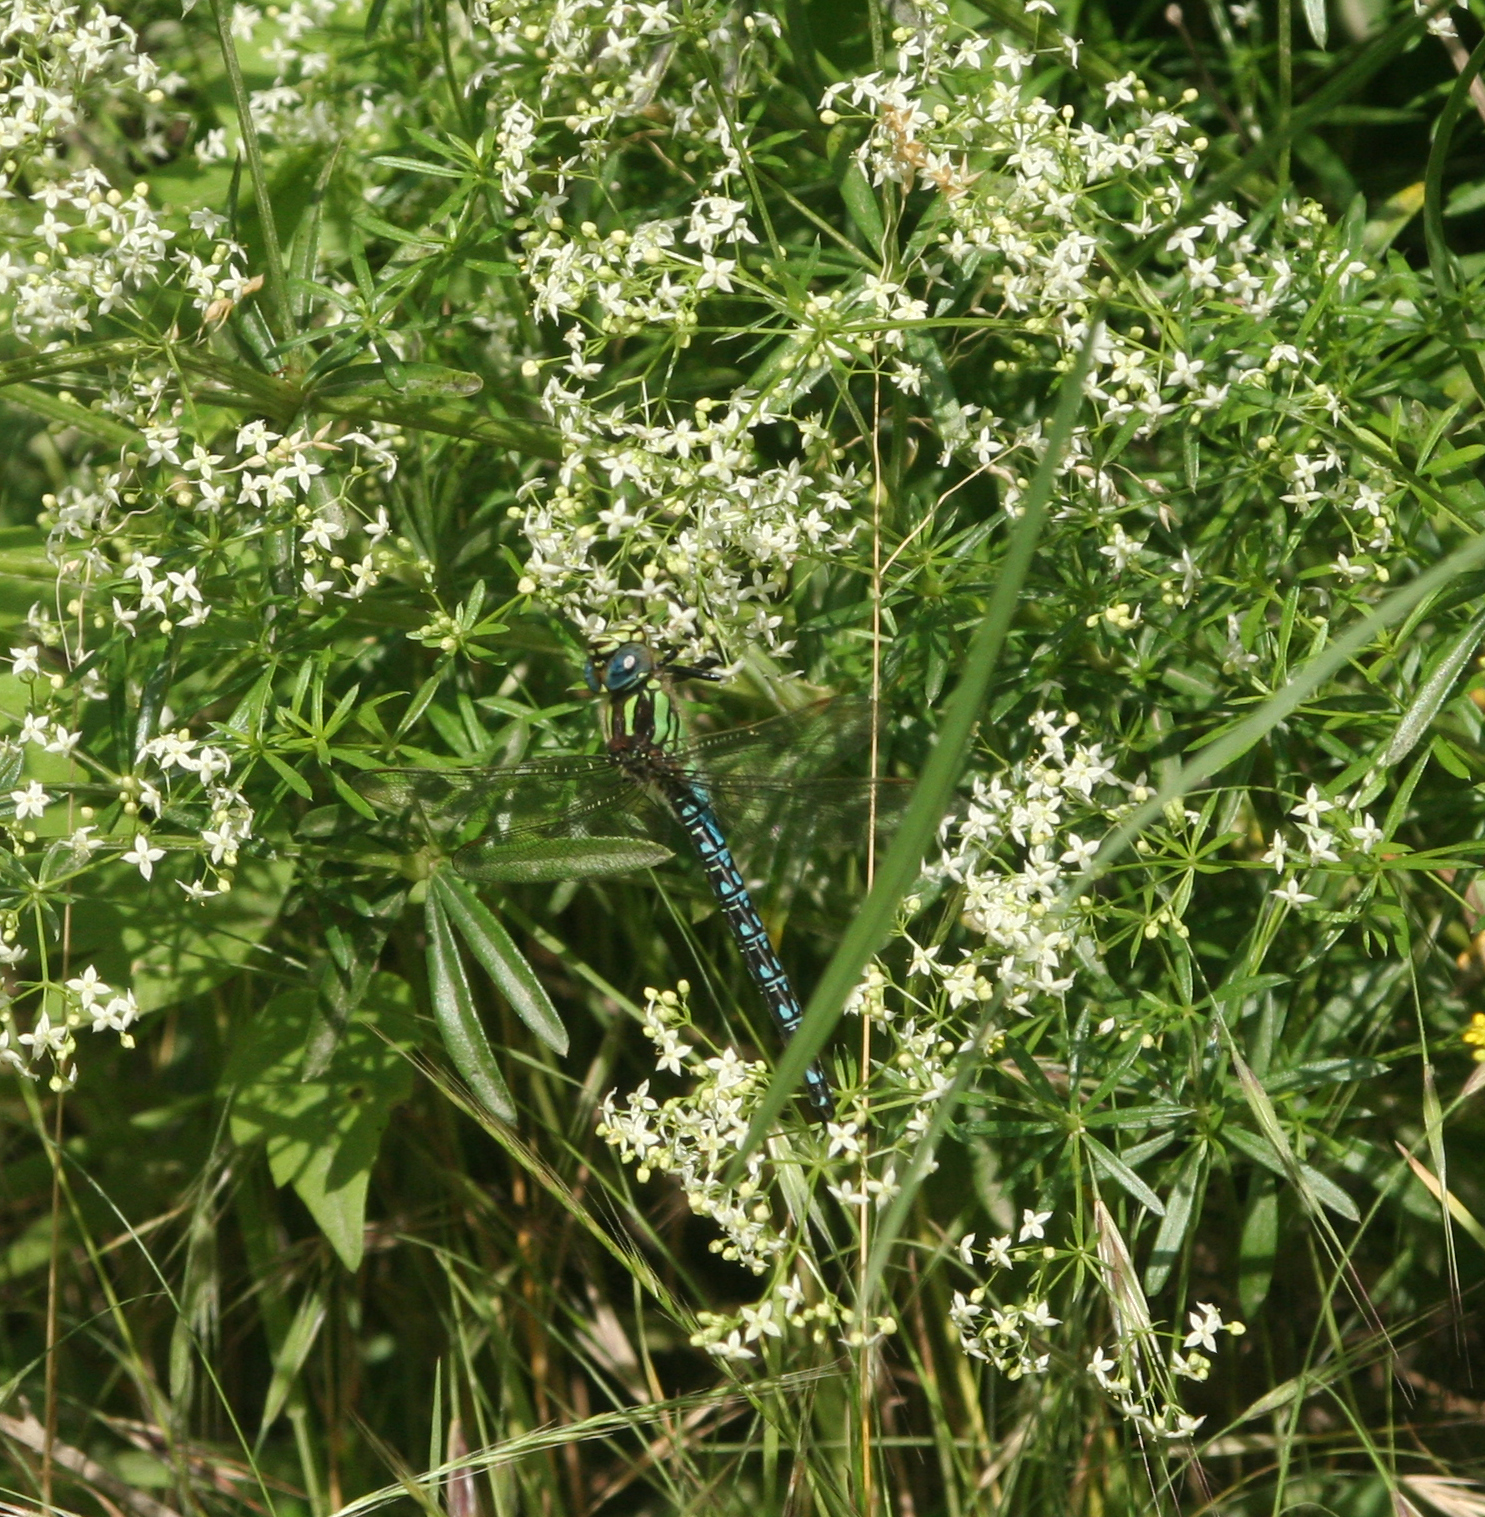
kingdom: Animalia
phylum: Arthropoda
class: Insecta
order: Odonata
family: Aeshnidae
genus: Brachytron
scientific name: Brachytron pratense
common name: Hairy hawker
